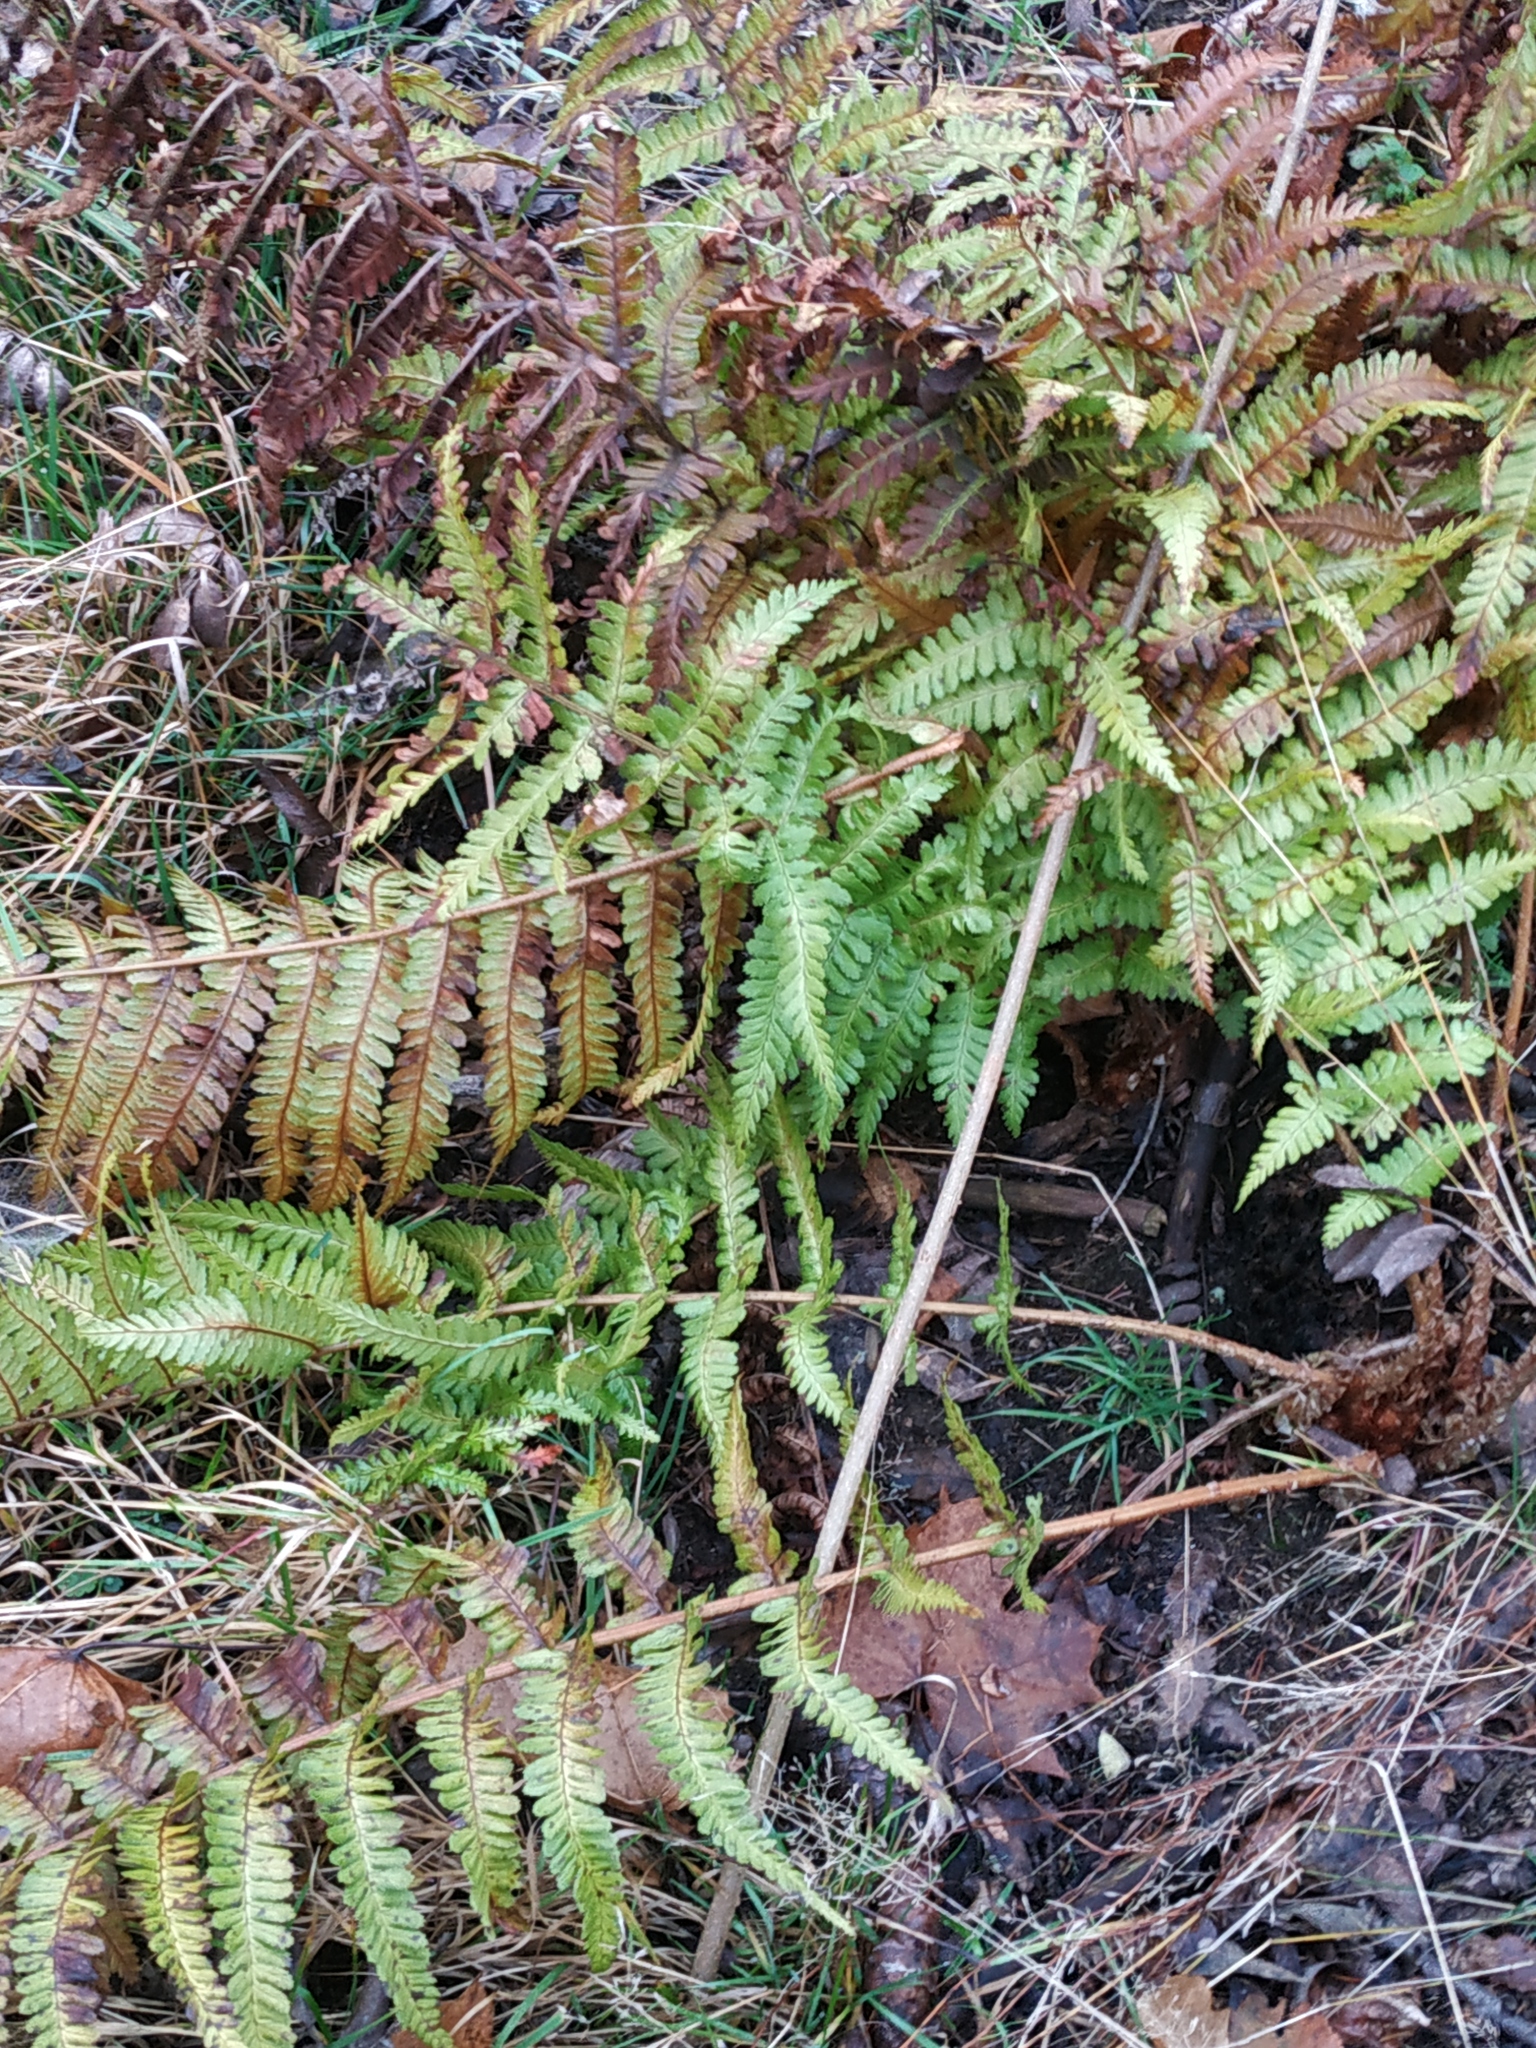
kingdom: Plantae
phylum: Tracheophyta
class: Polypodiopsida
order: Polypodiales
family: Dryopteridaceae
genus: Dryopteris
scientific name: Dryopteris filix-mas
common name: Male fern
